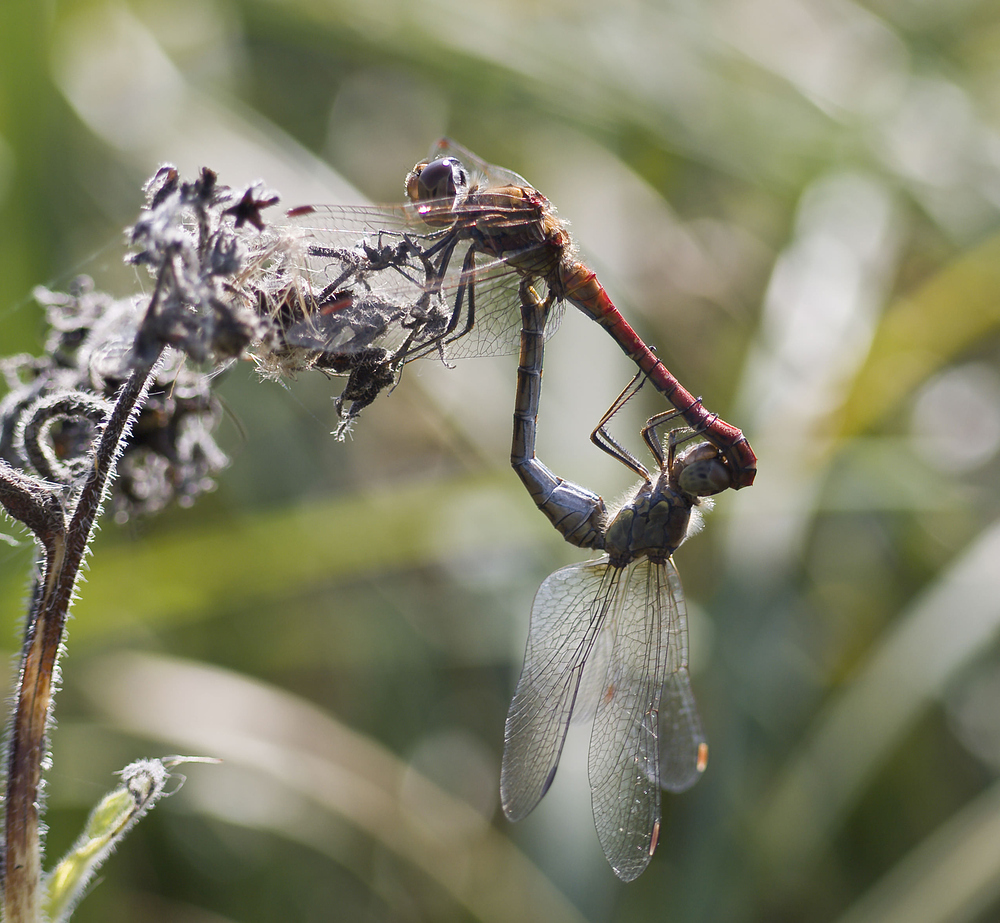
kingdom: Animalia
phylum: Arthropoda
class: Insecta
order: Odonata
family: Libellulidae
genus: Sympetrum
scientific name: Sympetrum striolatum
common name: Common darter
